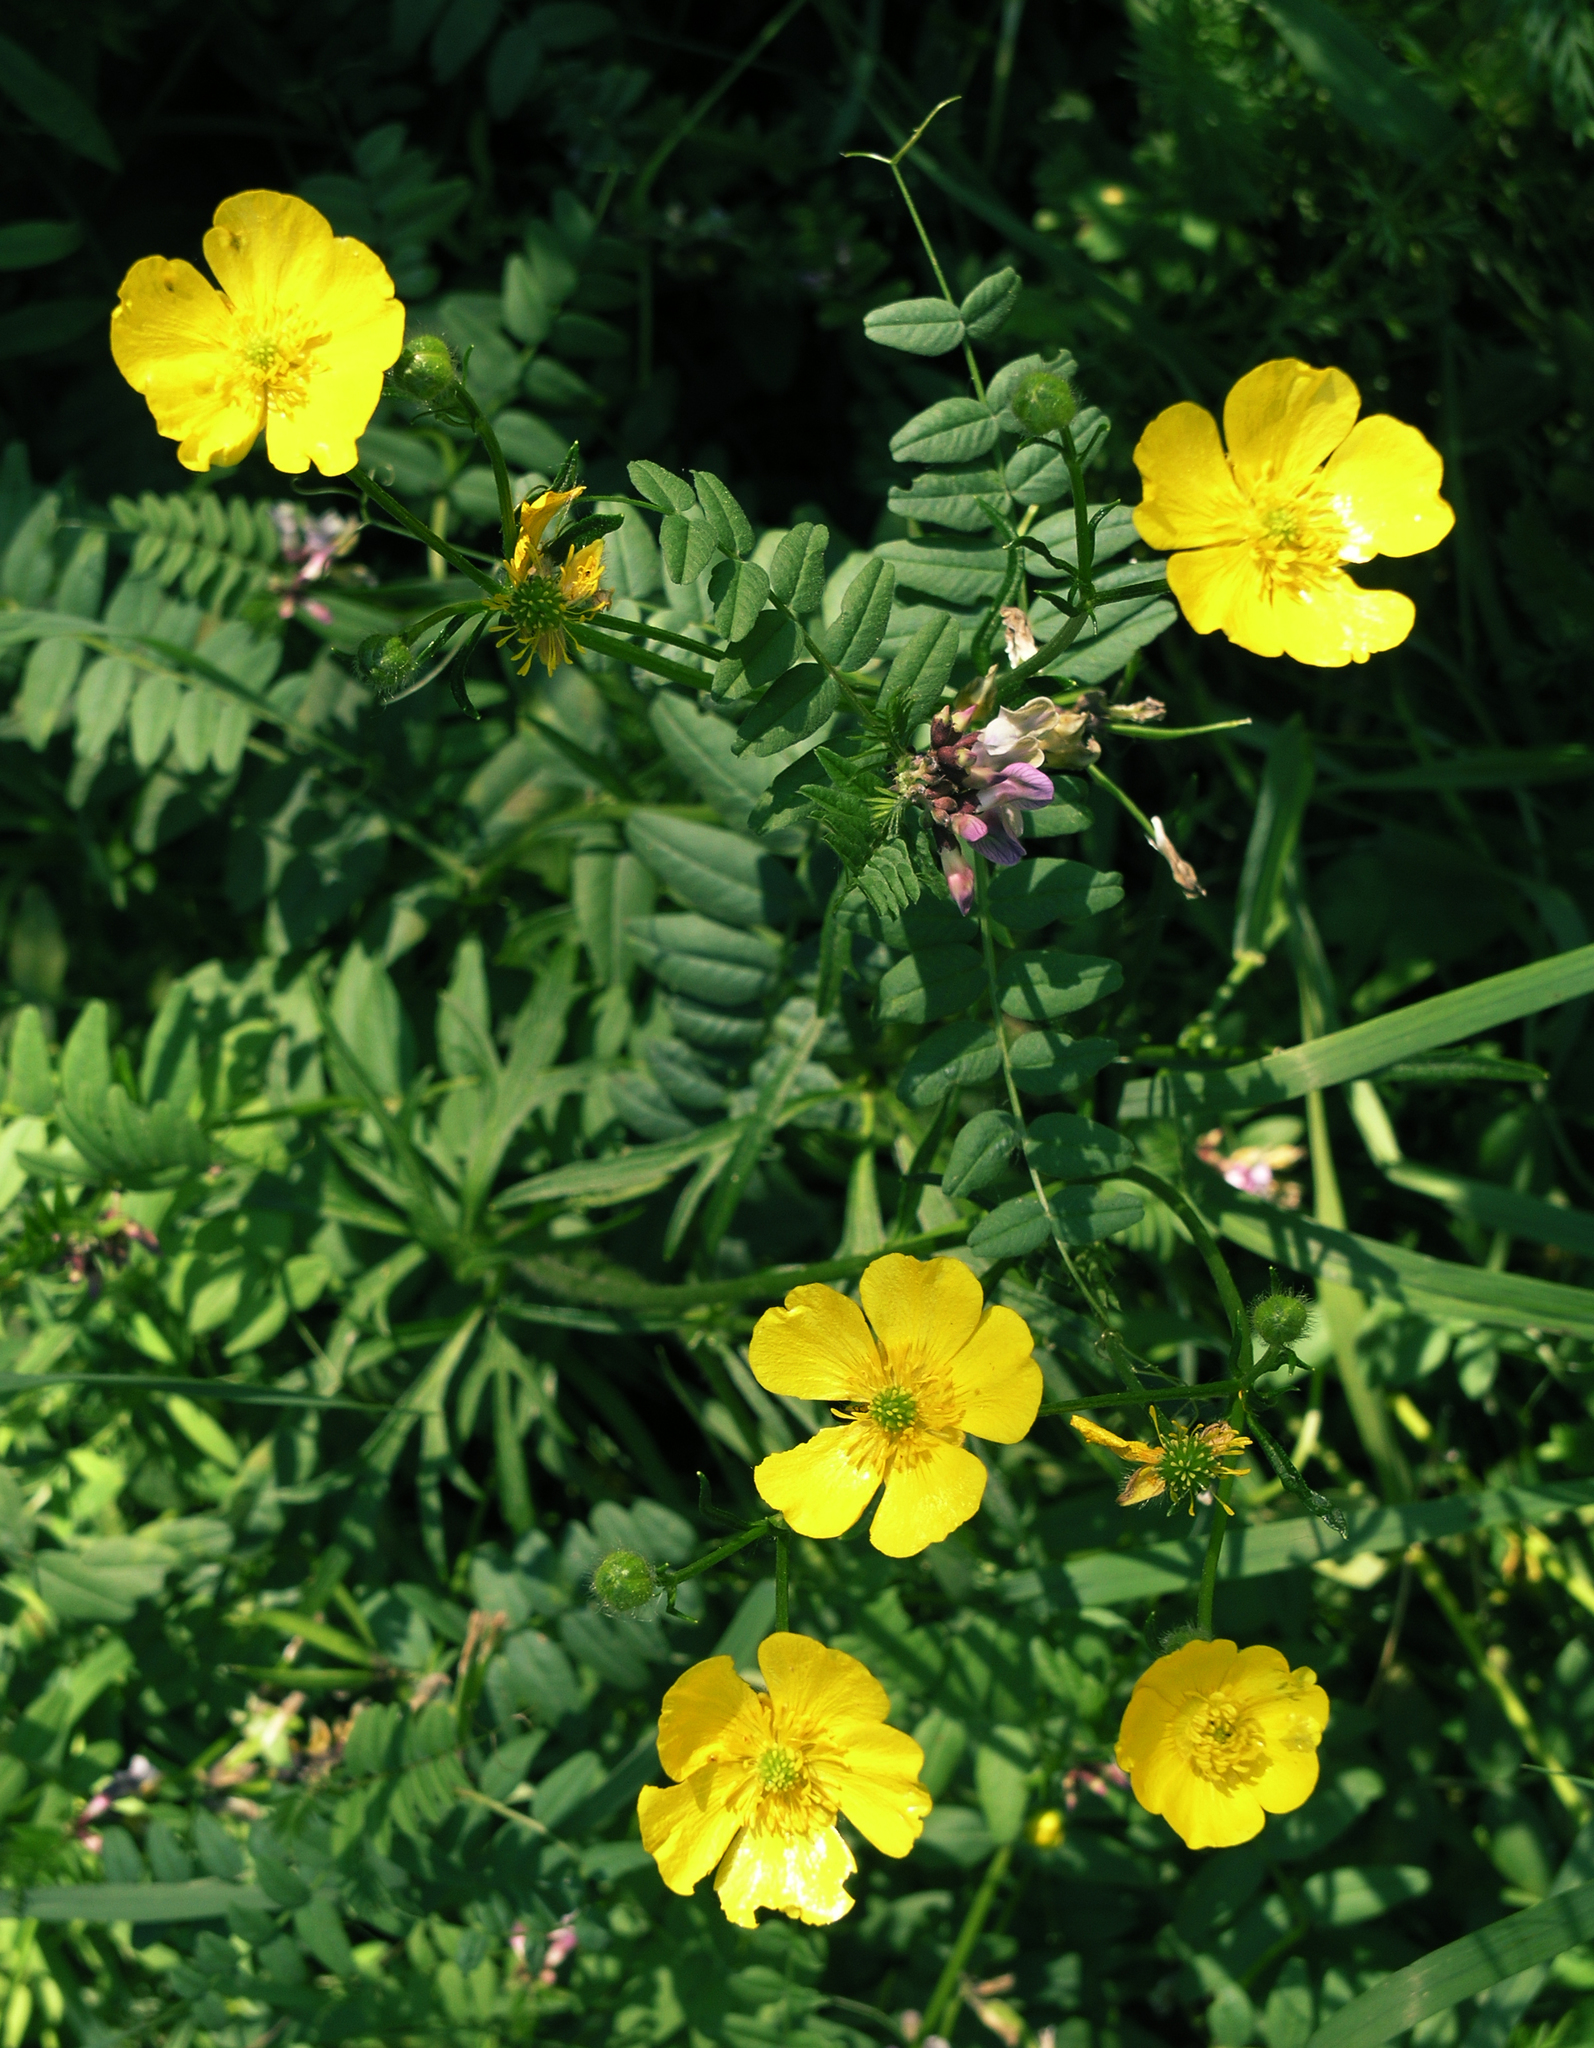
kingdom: Plantae
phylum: Tracheophyta
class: Magnoliopsida
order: Fabales
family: Fabaceae
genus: Vicia
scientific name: Vicia sepium
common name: Bush vetch
